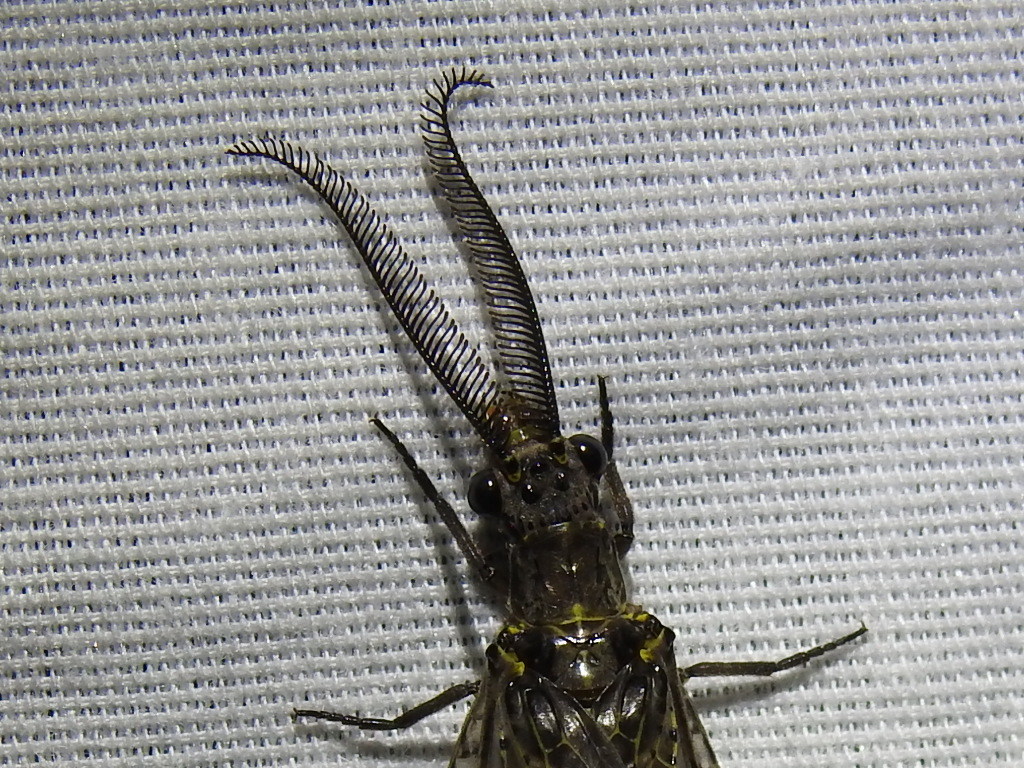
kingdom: Animalia
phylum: Arthropoda
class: Insecta
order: Megaloptera
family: Corydalidae
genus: Chauliodes
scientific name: Chauliodes rastricornis
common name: Spring fishfly
